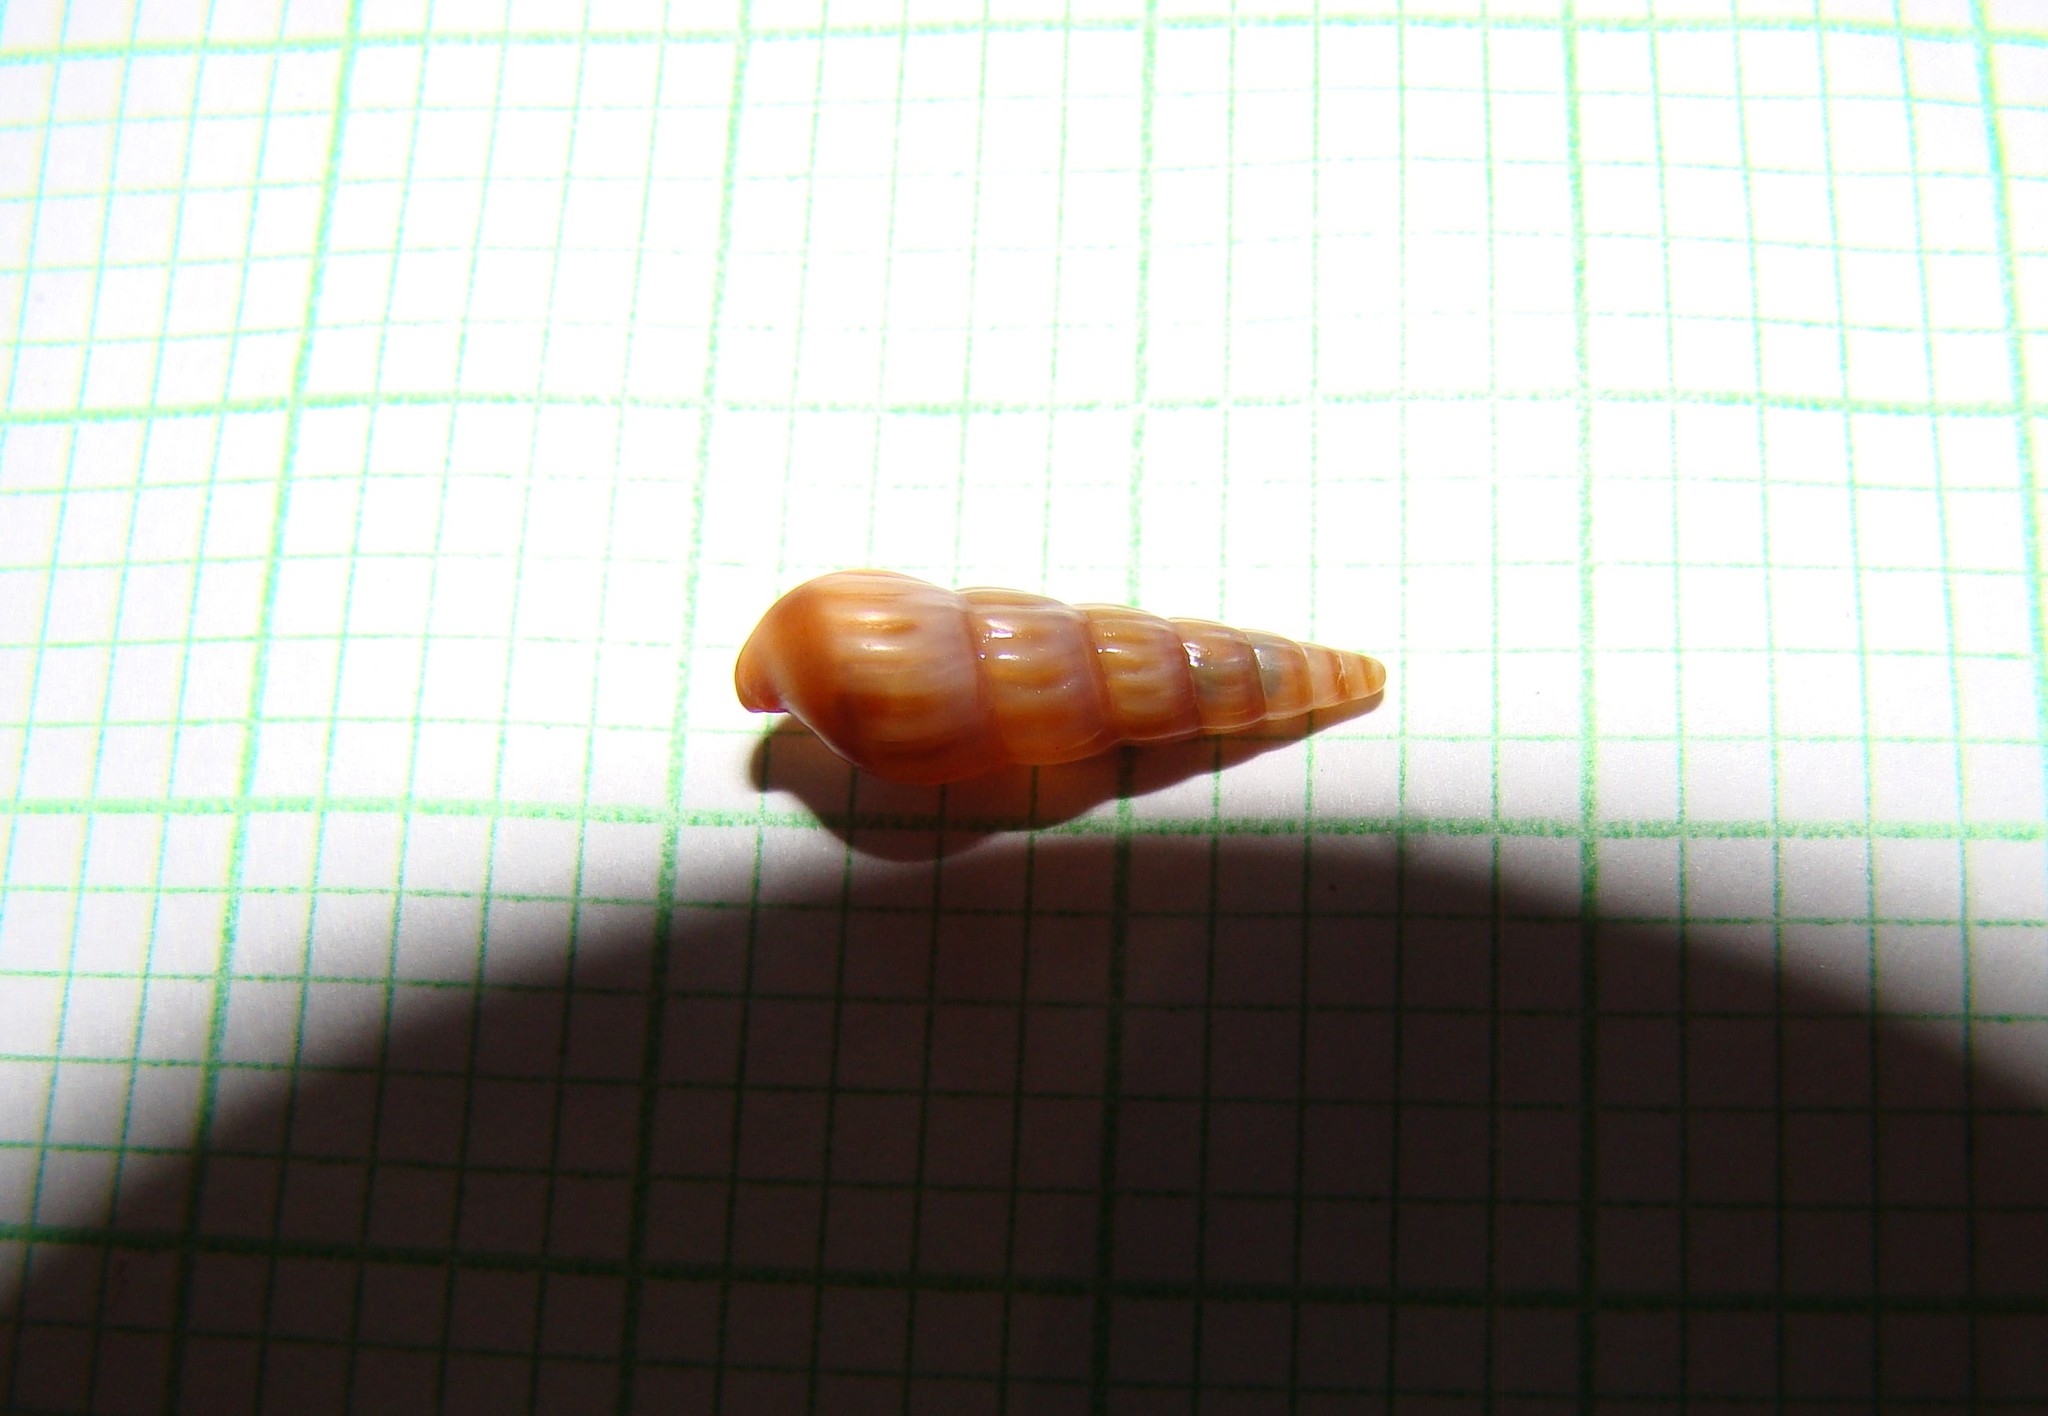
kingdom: Animalia
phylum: Mollusca
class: Gastropoda
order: Neogastropoda
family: Terebridae
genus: Duplicaria
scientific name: Duplicaria tristis
